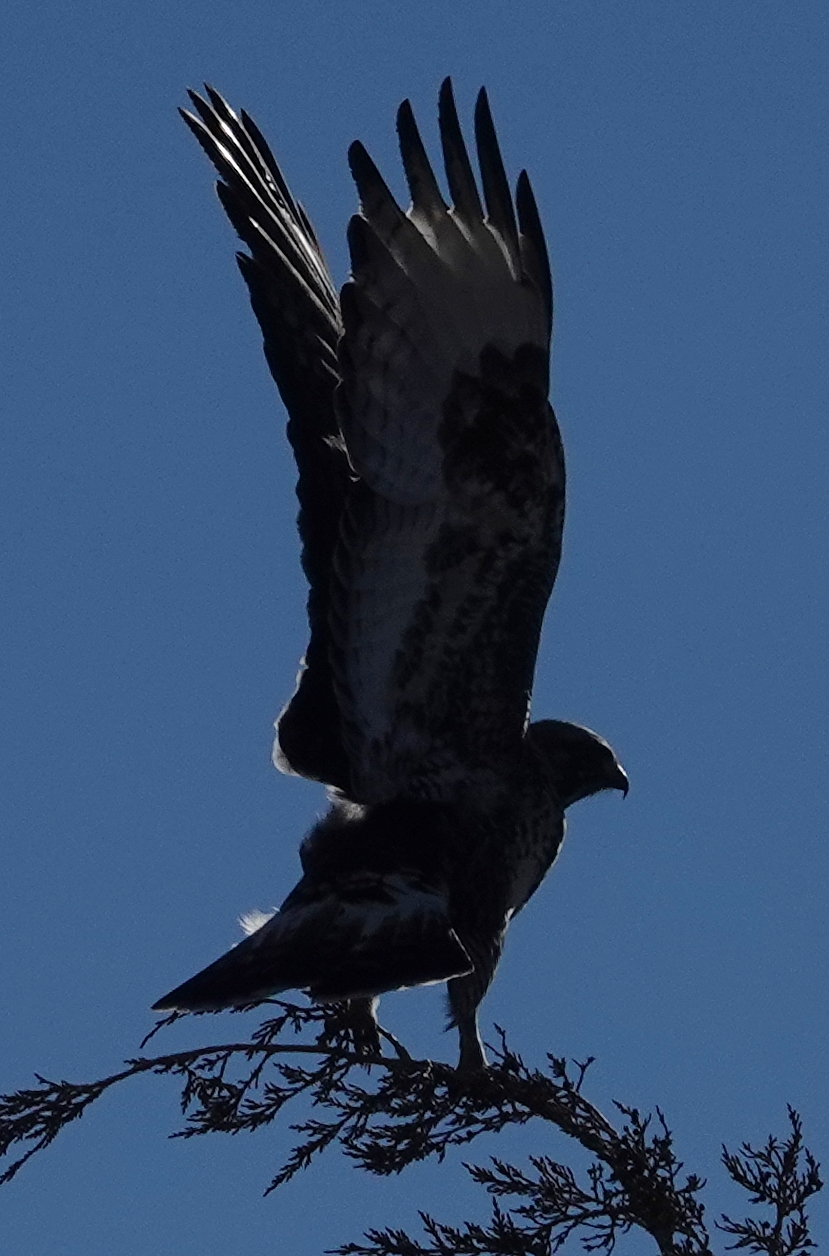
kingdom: Animalia
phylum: Chordata
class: Aves
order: Accipitriformes
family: Accipitridae
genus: Buteo
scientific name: Buteo lagopus
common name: Rough-legged buzzard
